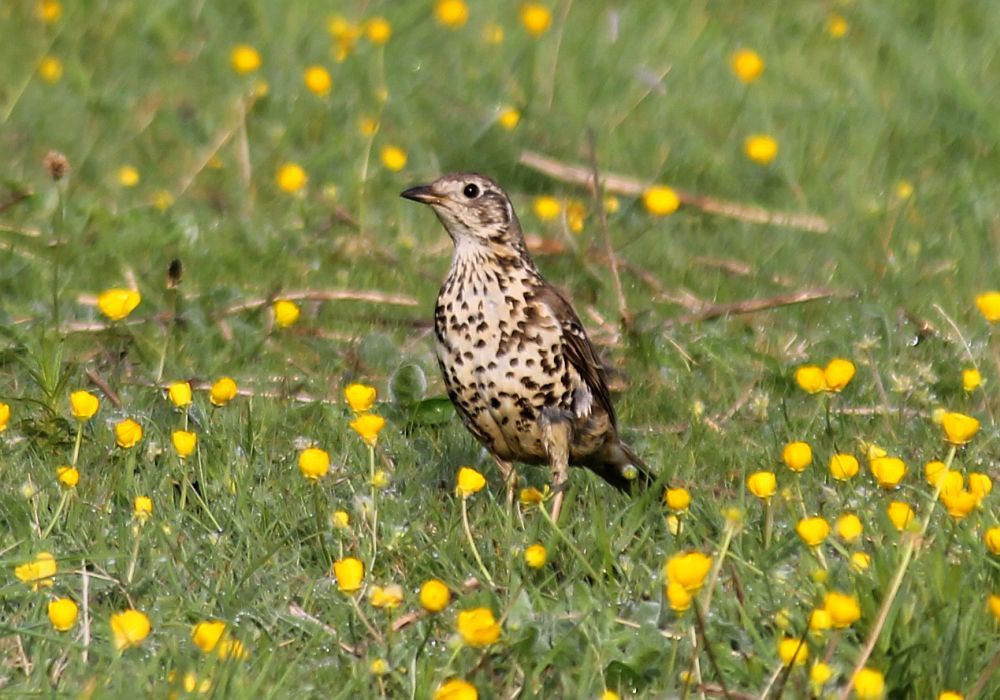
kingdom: Animalia
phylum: Chordata
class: Aves
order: Passeriformes
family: Turdidae
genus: Turdus
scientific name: Turdus viscivorus
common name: Mistle thrush
